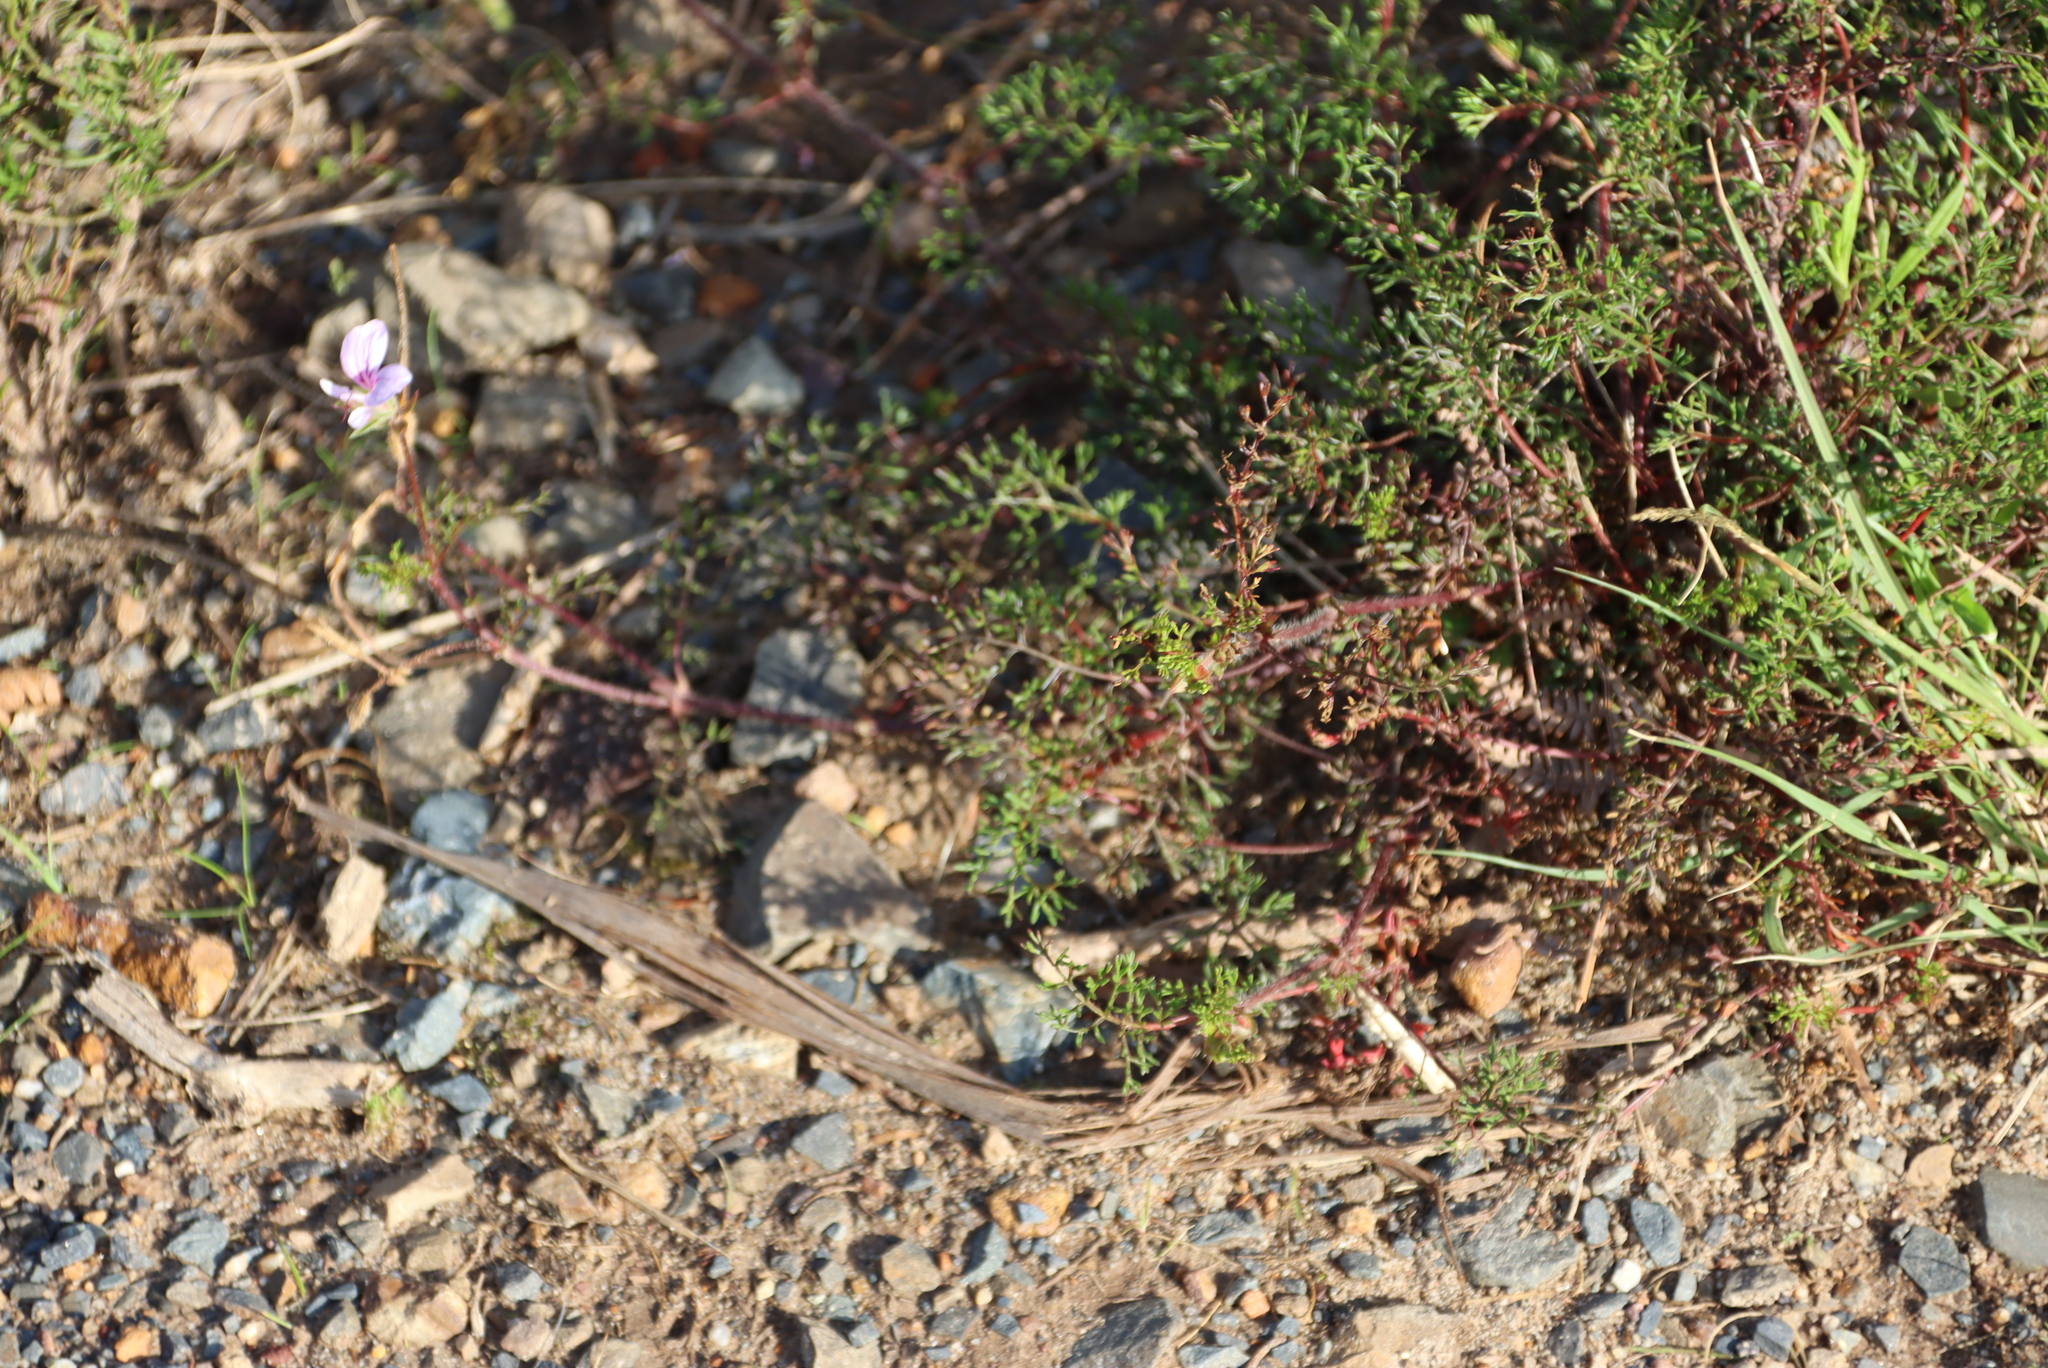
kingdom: Plantae
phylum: Tracheophyta
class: Magnoliopsida
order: Geraniales
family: Geraniaceae
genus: Pelargonium
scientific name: Pelargonium myrrhifolium
